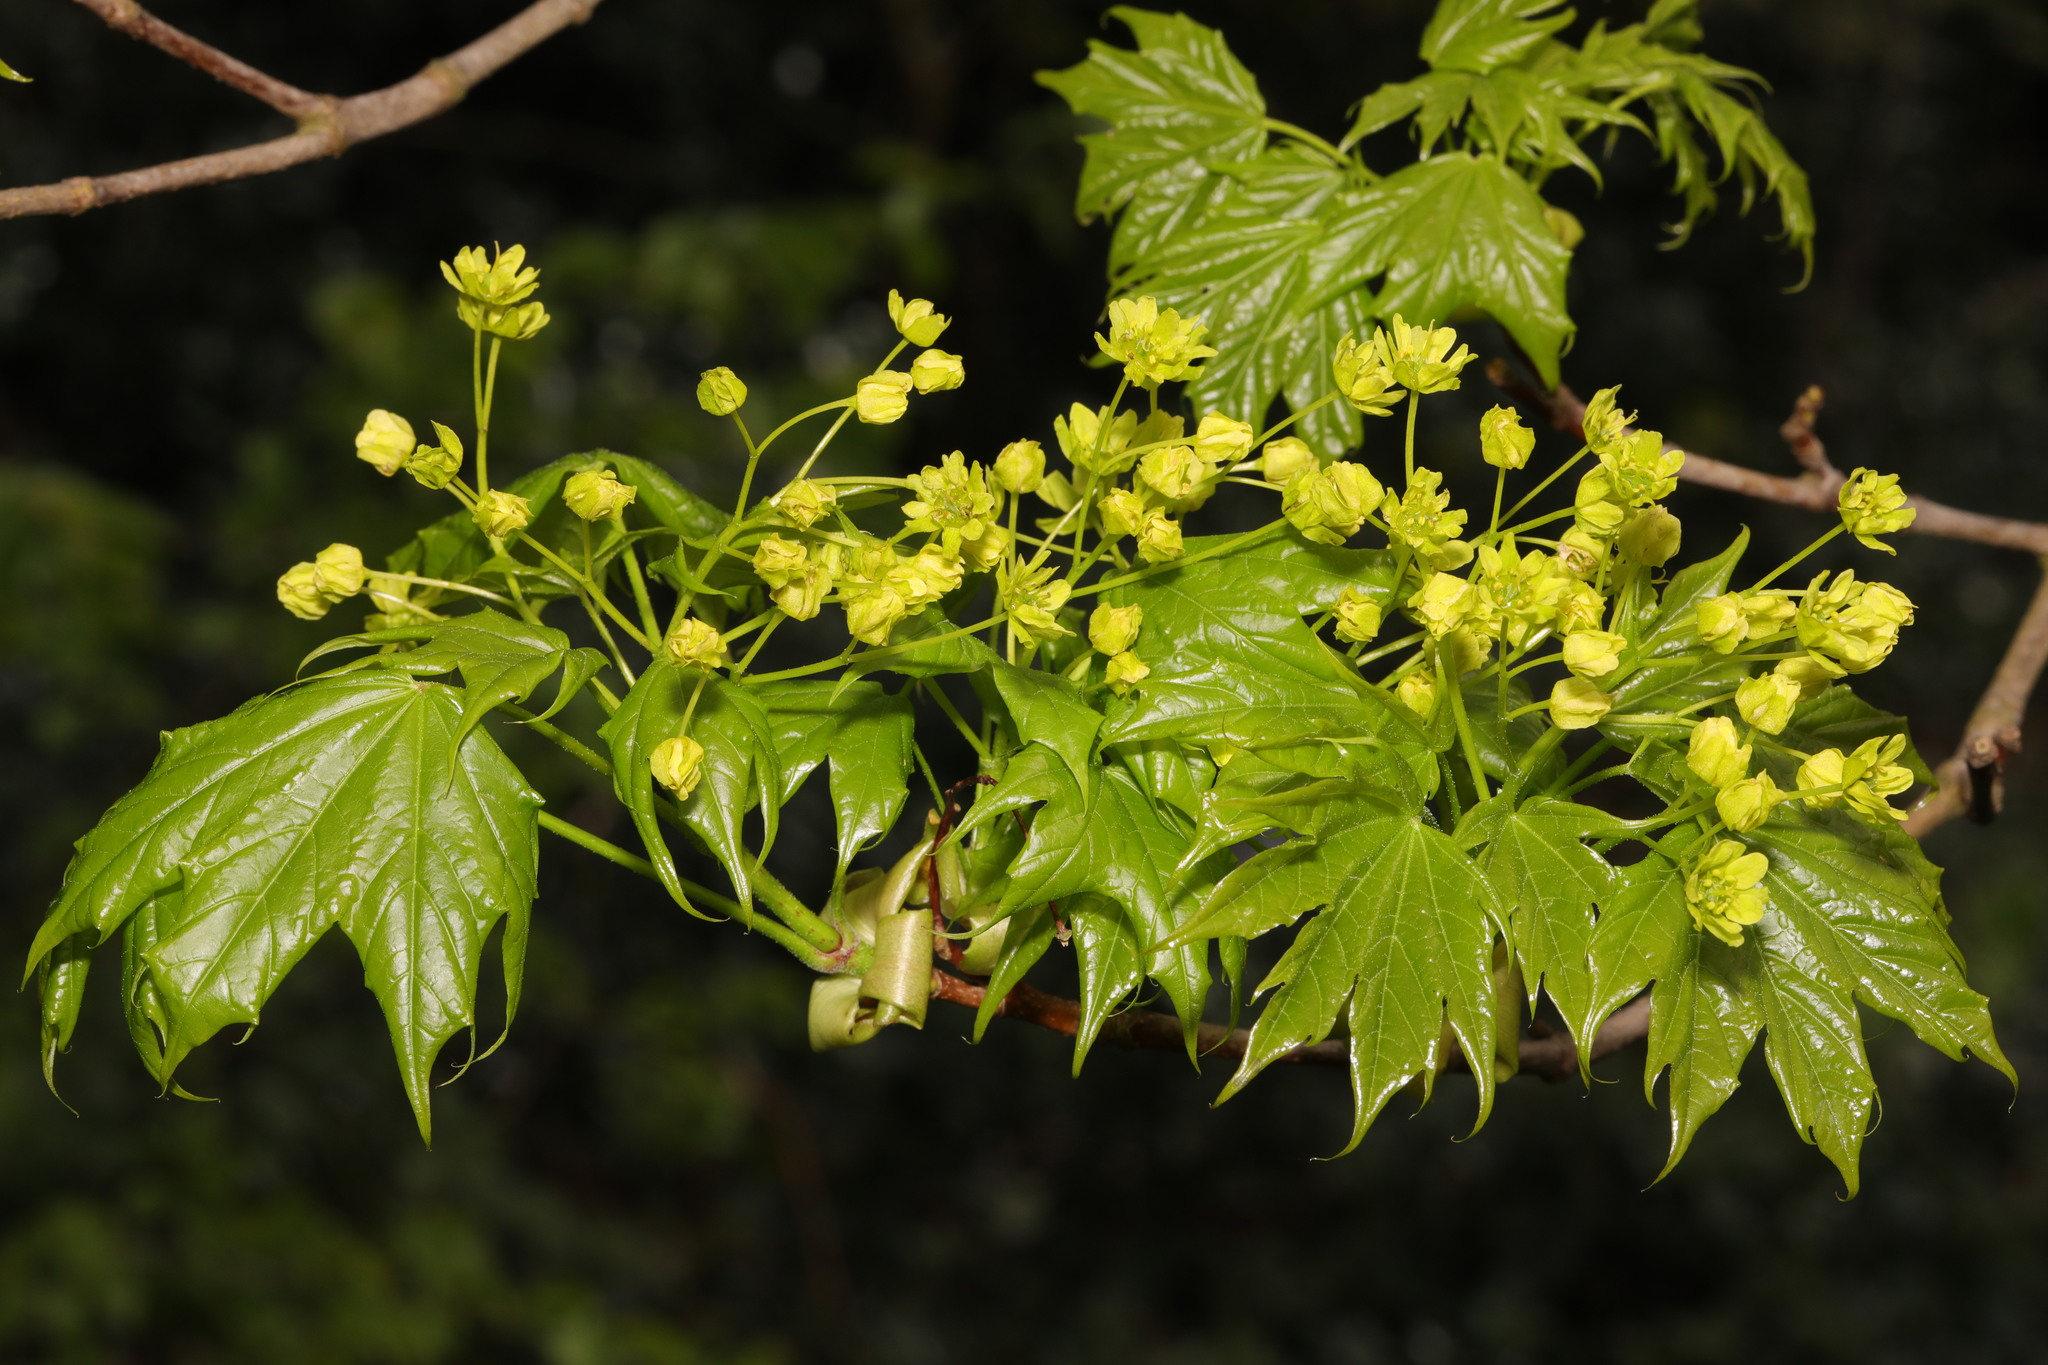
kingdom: Plantae
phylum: Tracheophyta
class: Magnoliopsida
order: Sapindales
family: Sapindaceae
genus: Acer
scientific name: Acer platanoides
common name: Norway maple
